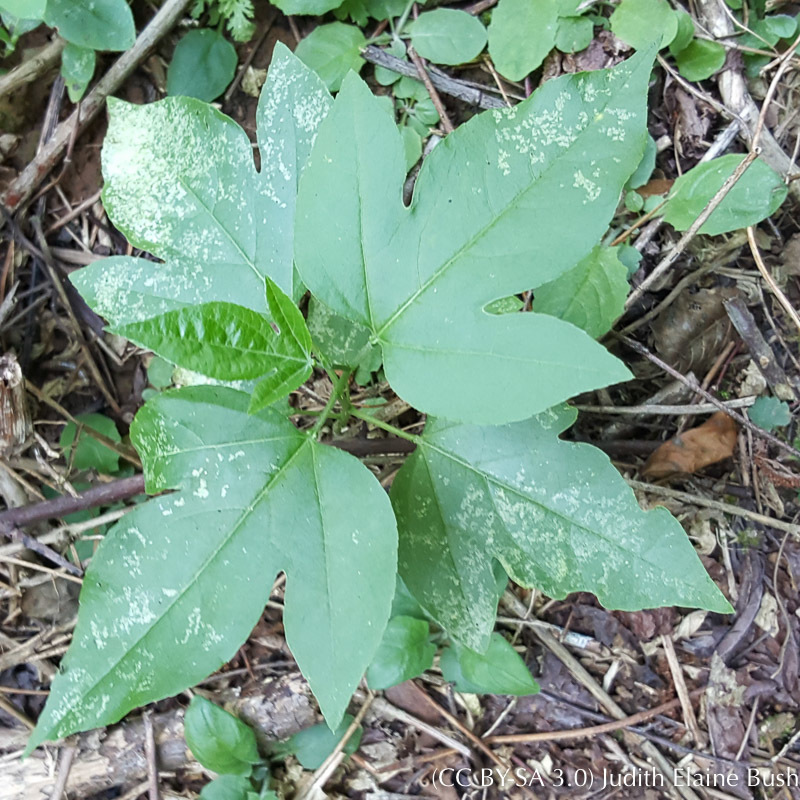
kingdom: Plantae
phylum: Tracheophyta
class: Magnoliopsida
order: Asterales
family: Asteraceae
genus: Ambrosia
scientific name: Ambrosia trifida
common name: Giant ragweed
